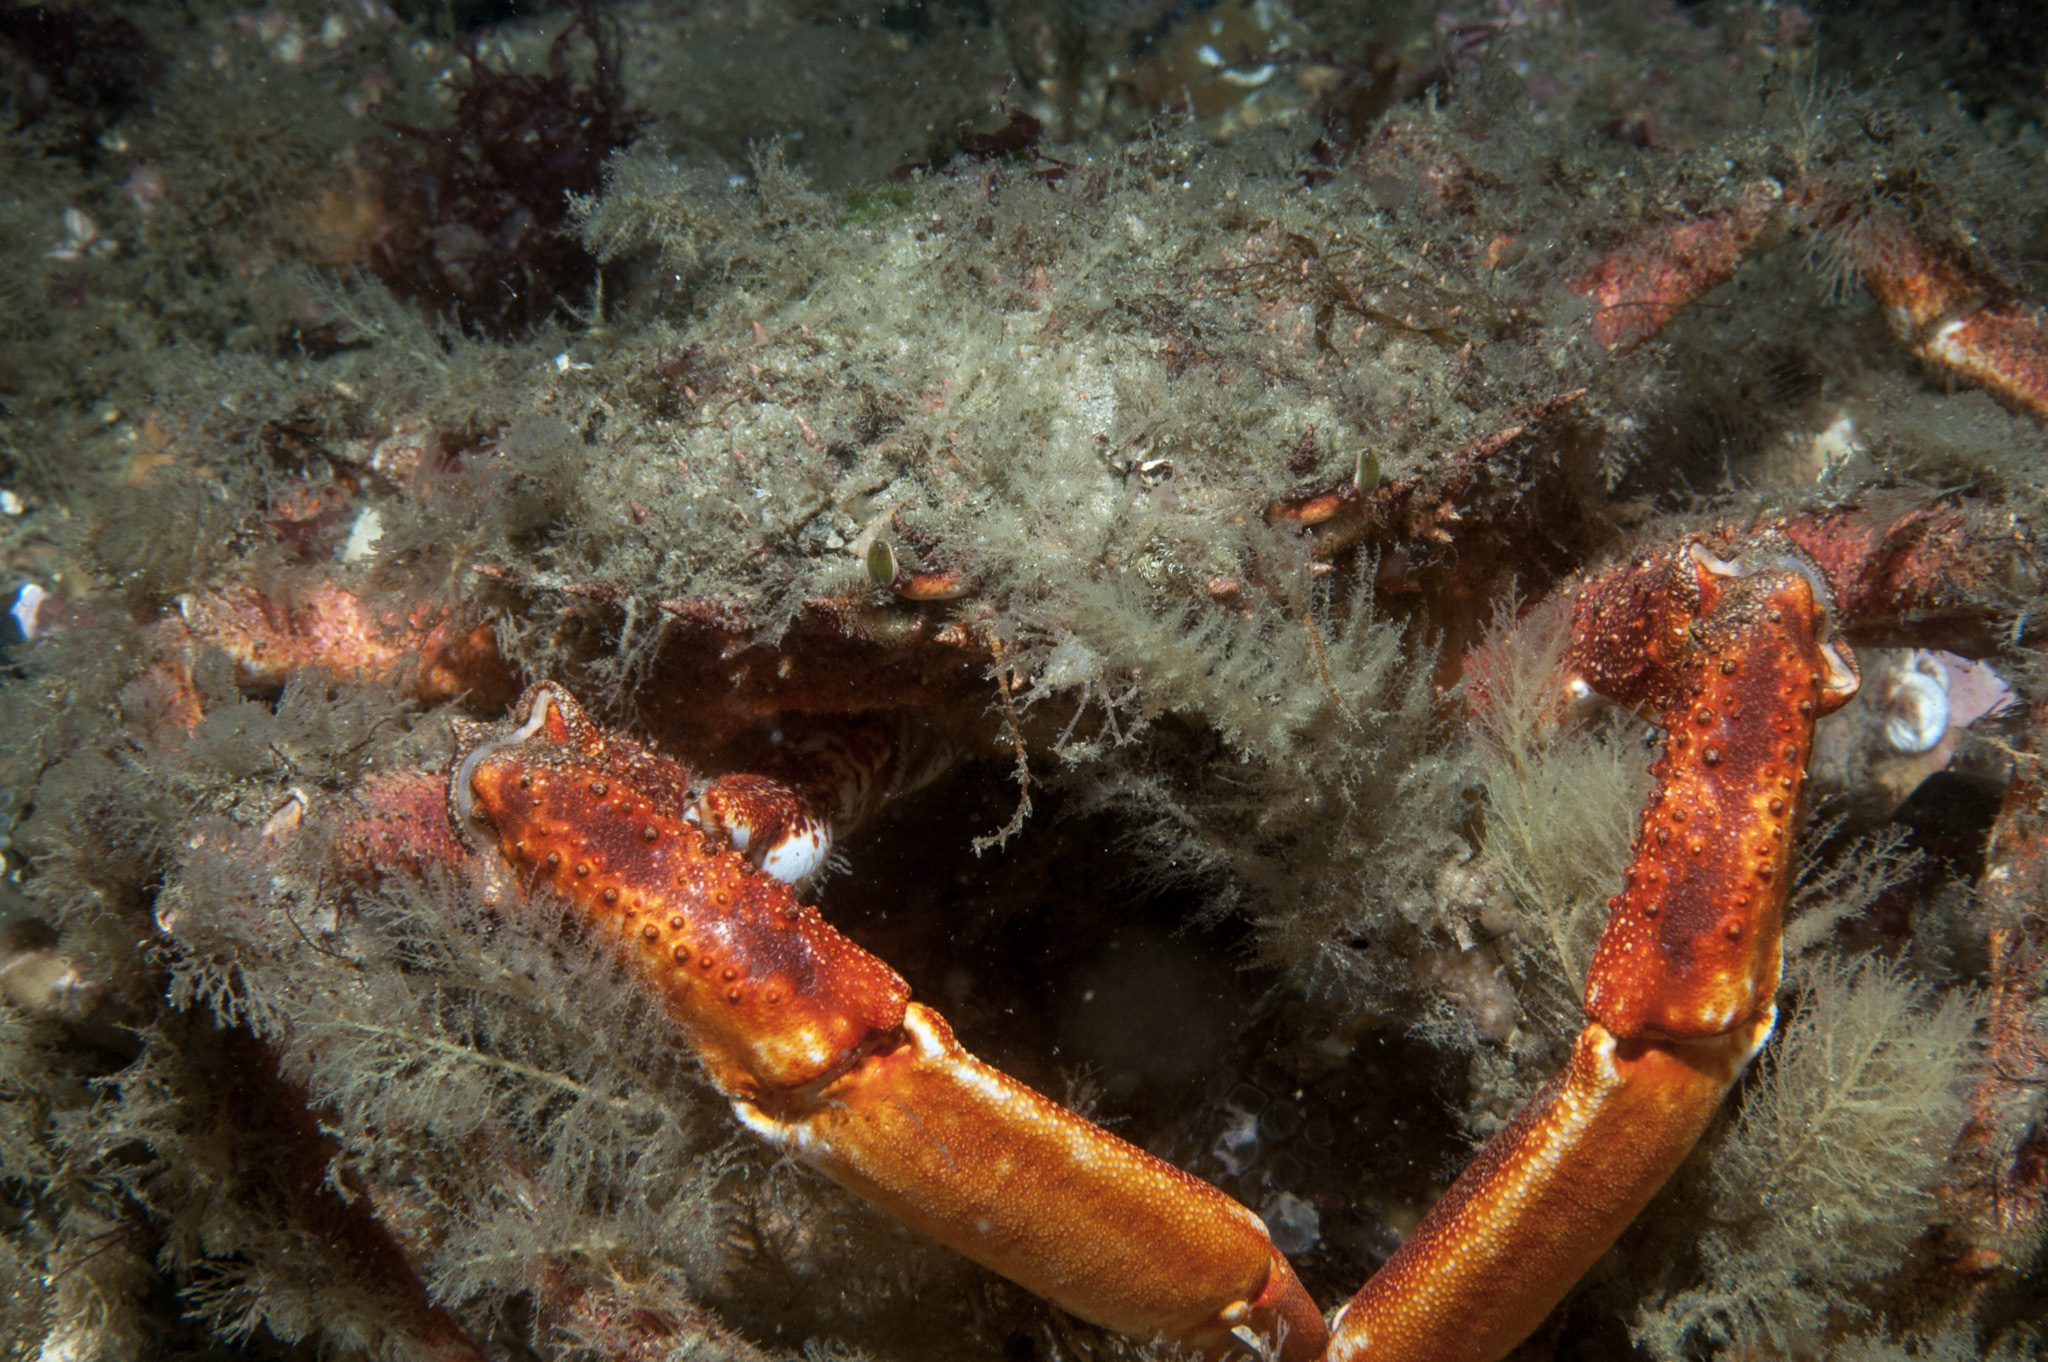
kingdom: Animalia
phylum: Arthropoda
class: Malacostraca
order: Decapoda
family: Majidae
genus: Maja
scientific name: Maja brachydactyla
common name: Common spider crab
